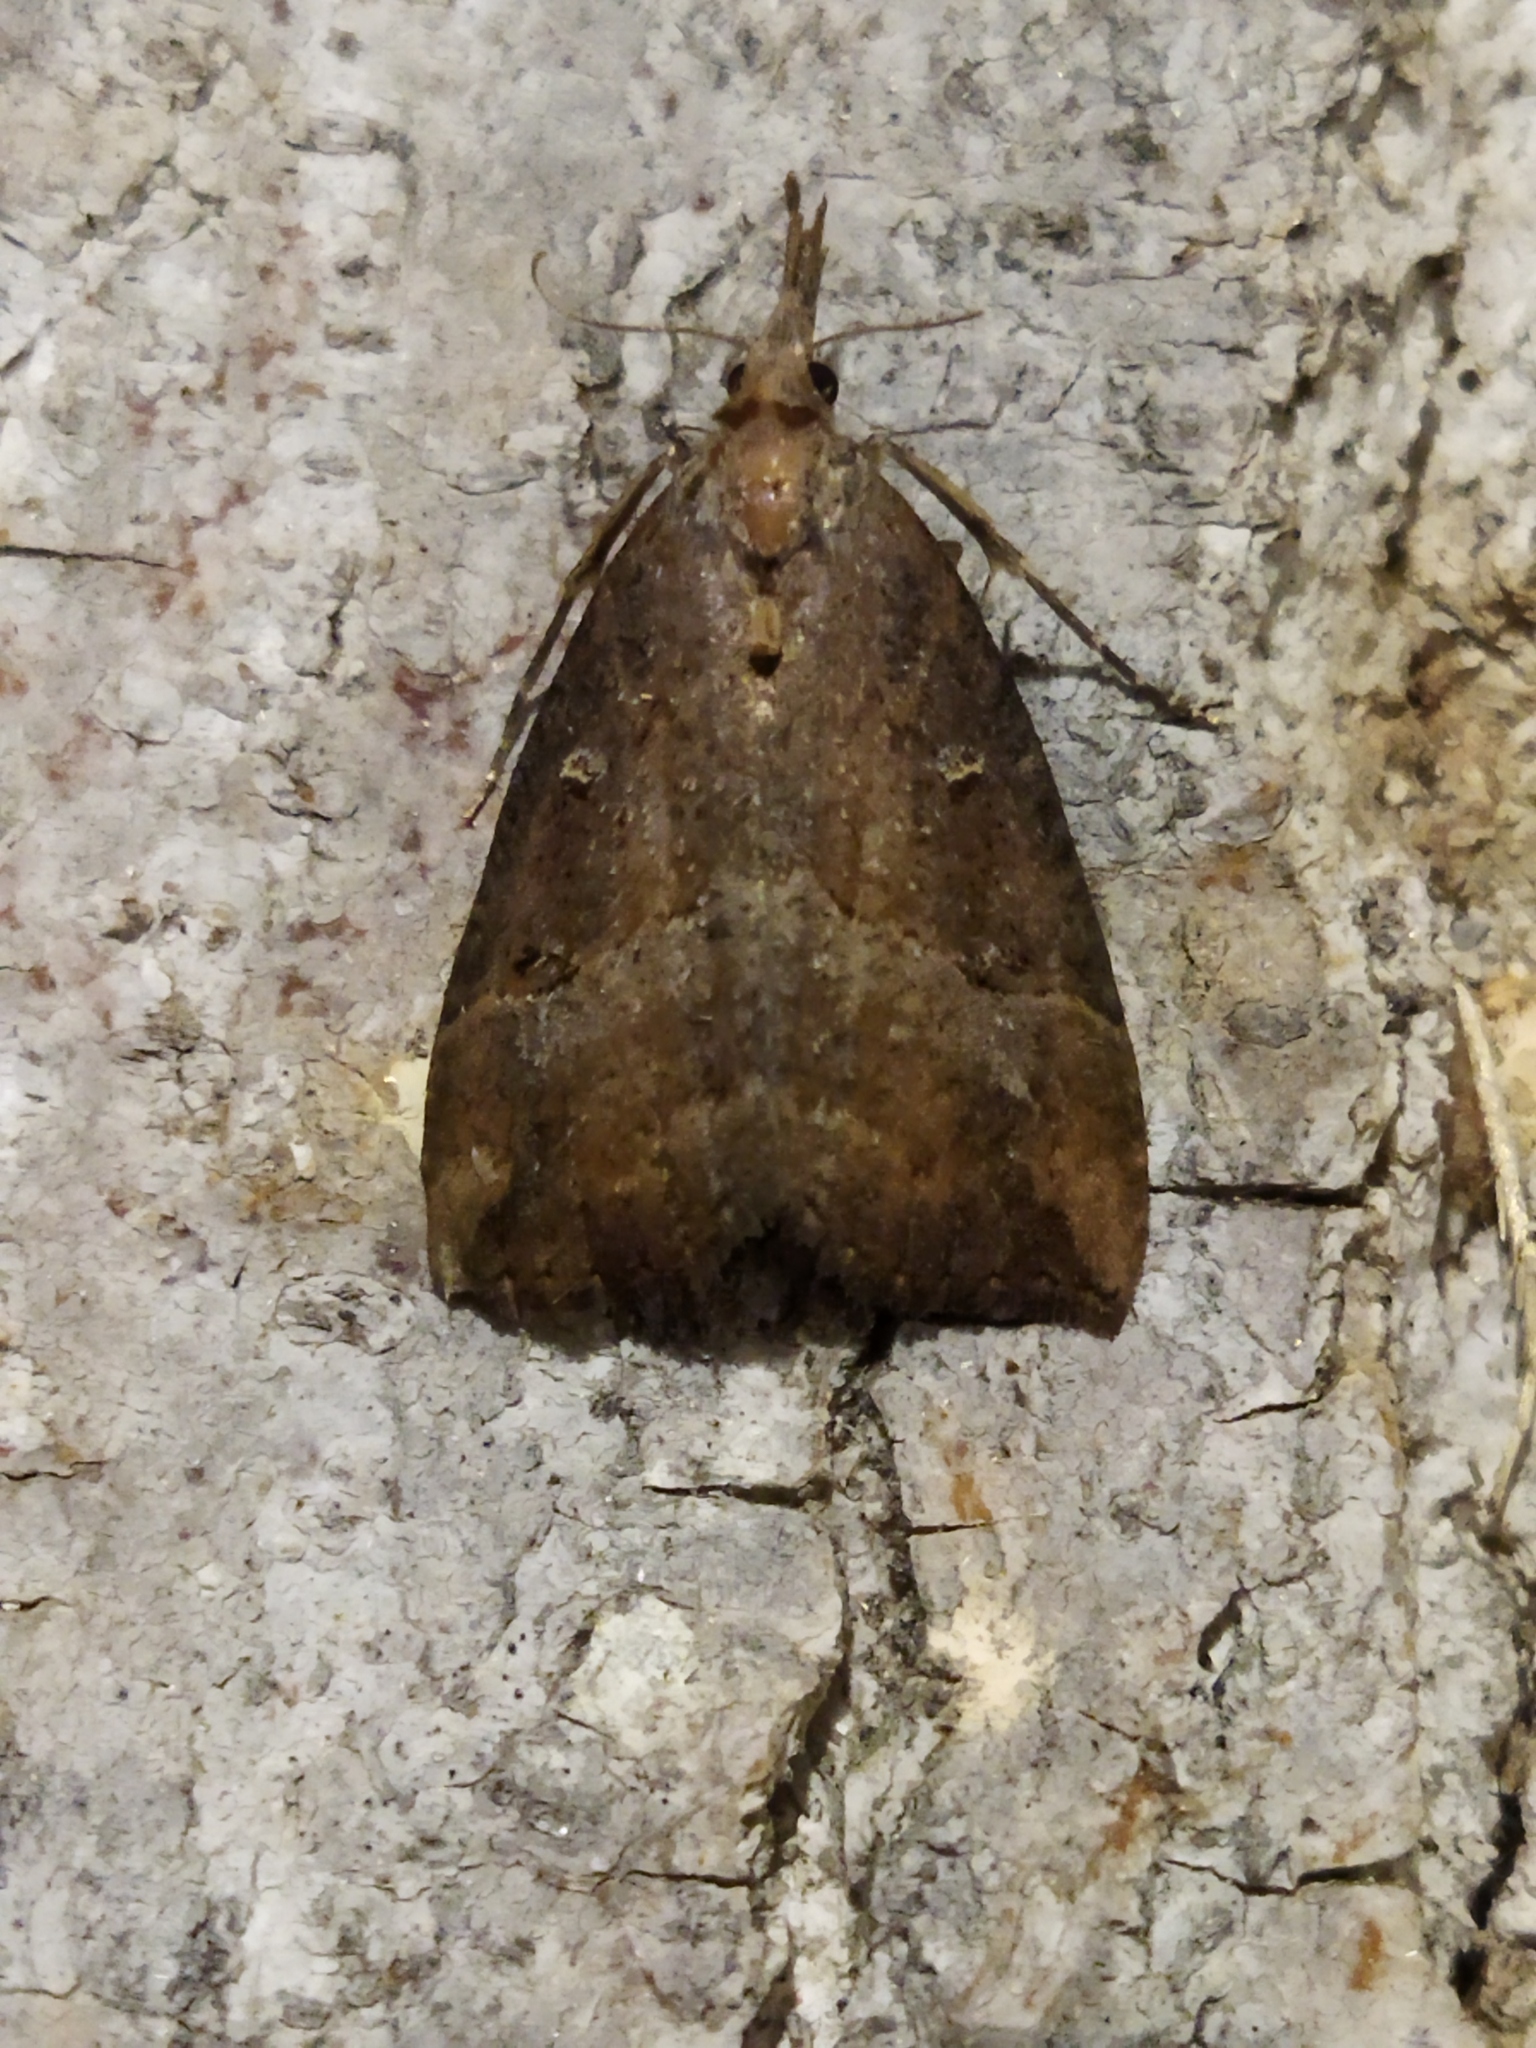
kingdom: Animalia
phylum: Arthropoda
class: Insecta
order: Lepidoptera
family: Erebidae
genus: Hypena
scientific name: Hypena rostralis
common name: Buttoned snout
